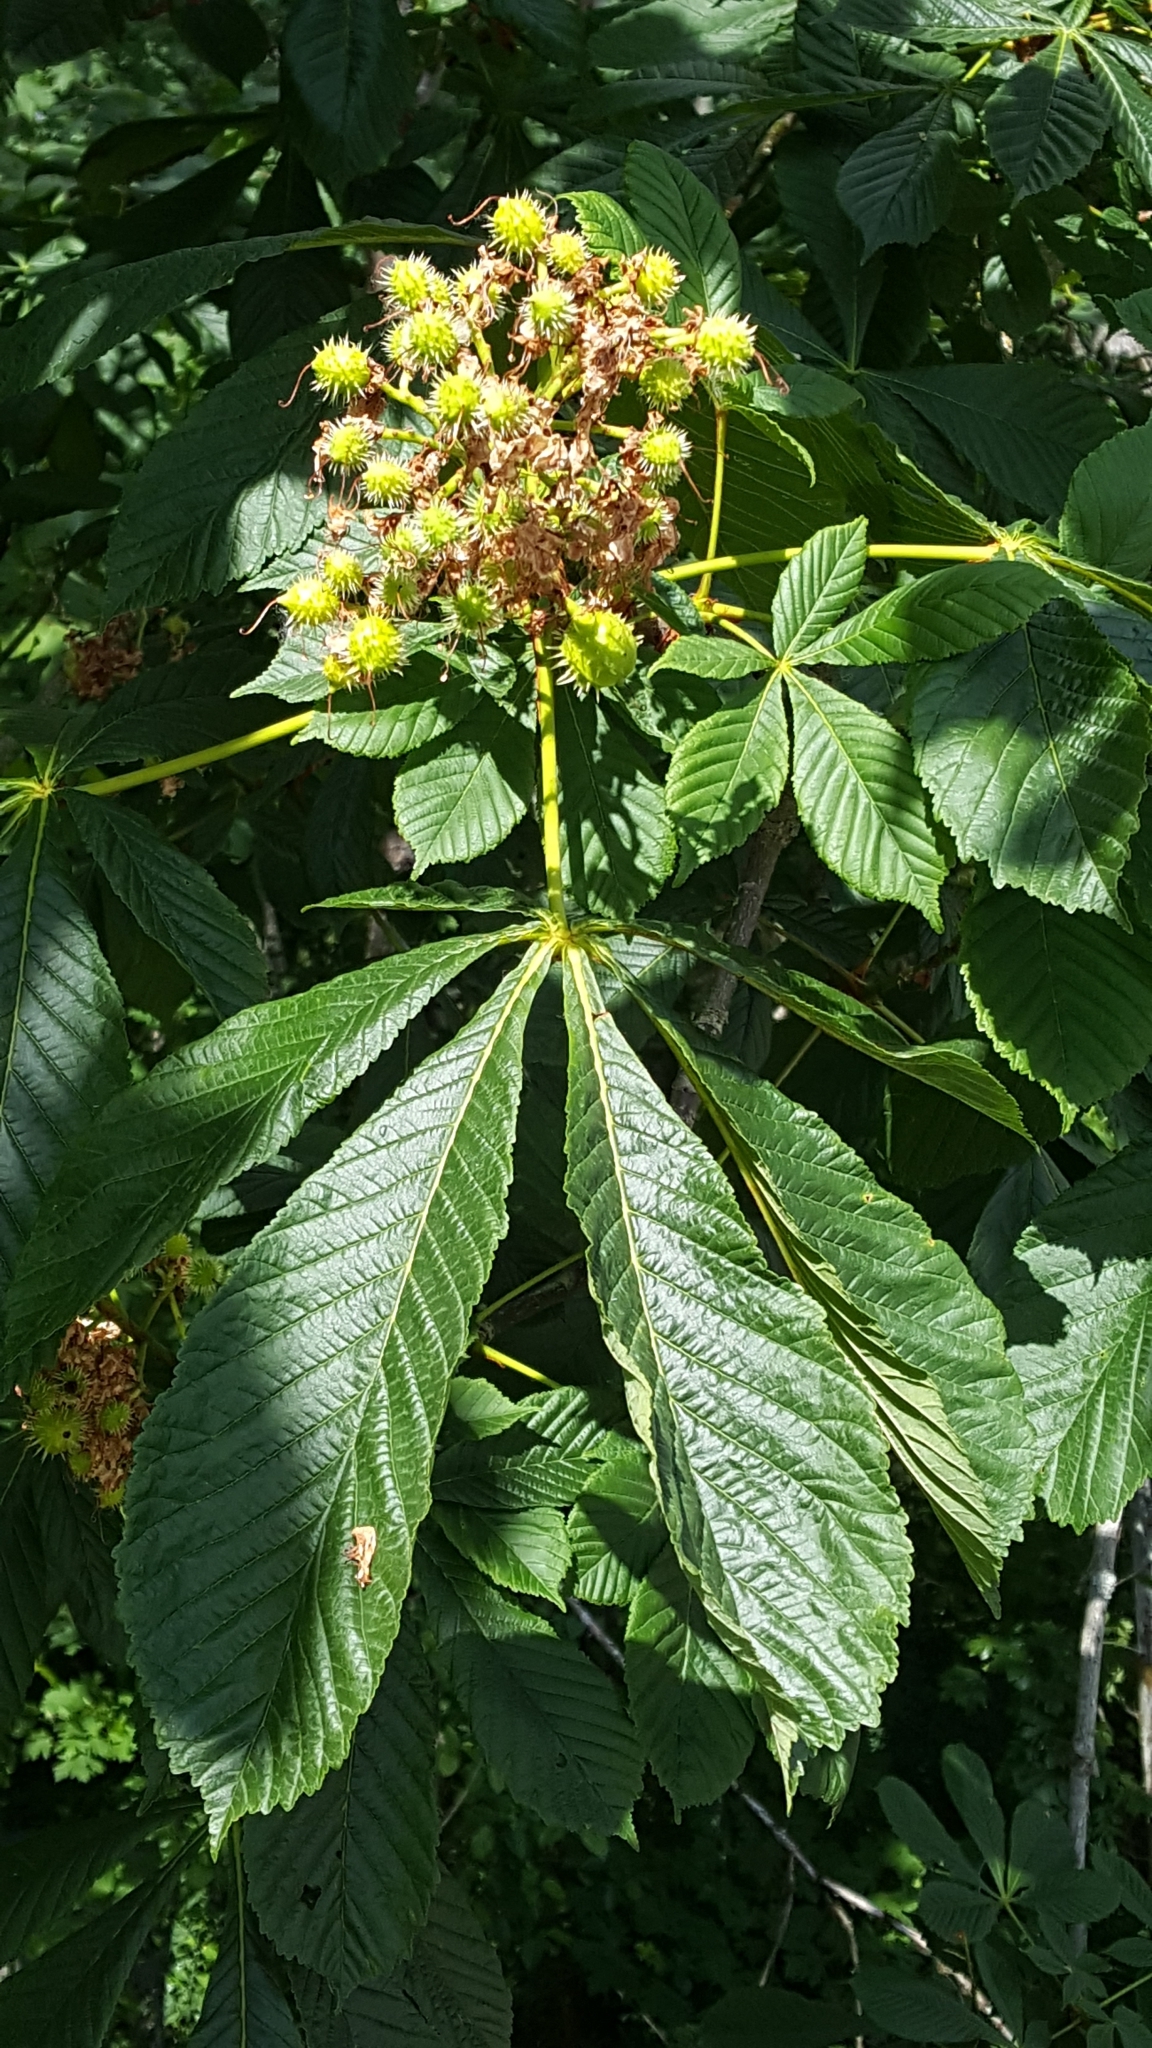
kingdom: Plantae
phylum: Tracheophyta
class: Magnoliopsida
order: Sapindales
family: Sapindaceae
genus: Aesculus
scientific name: Aesculus hippocastanum
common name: Horse-chestnut
